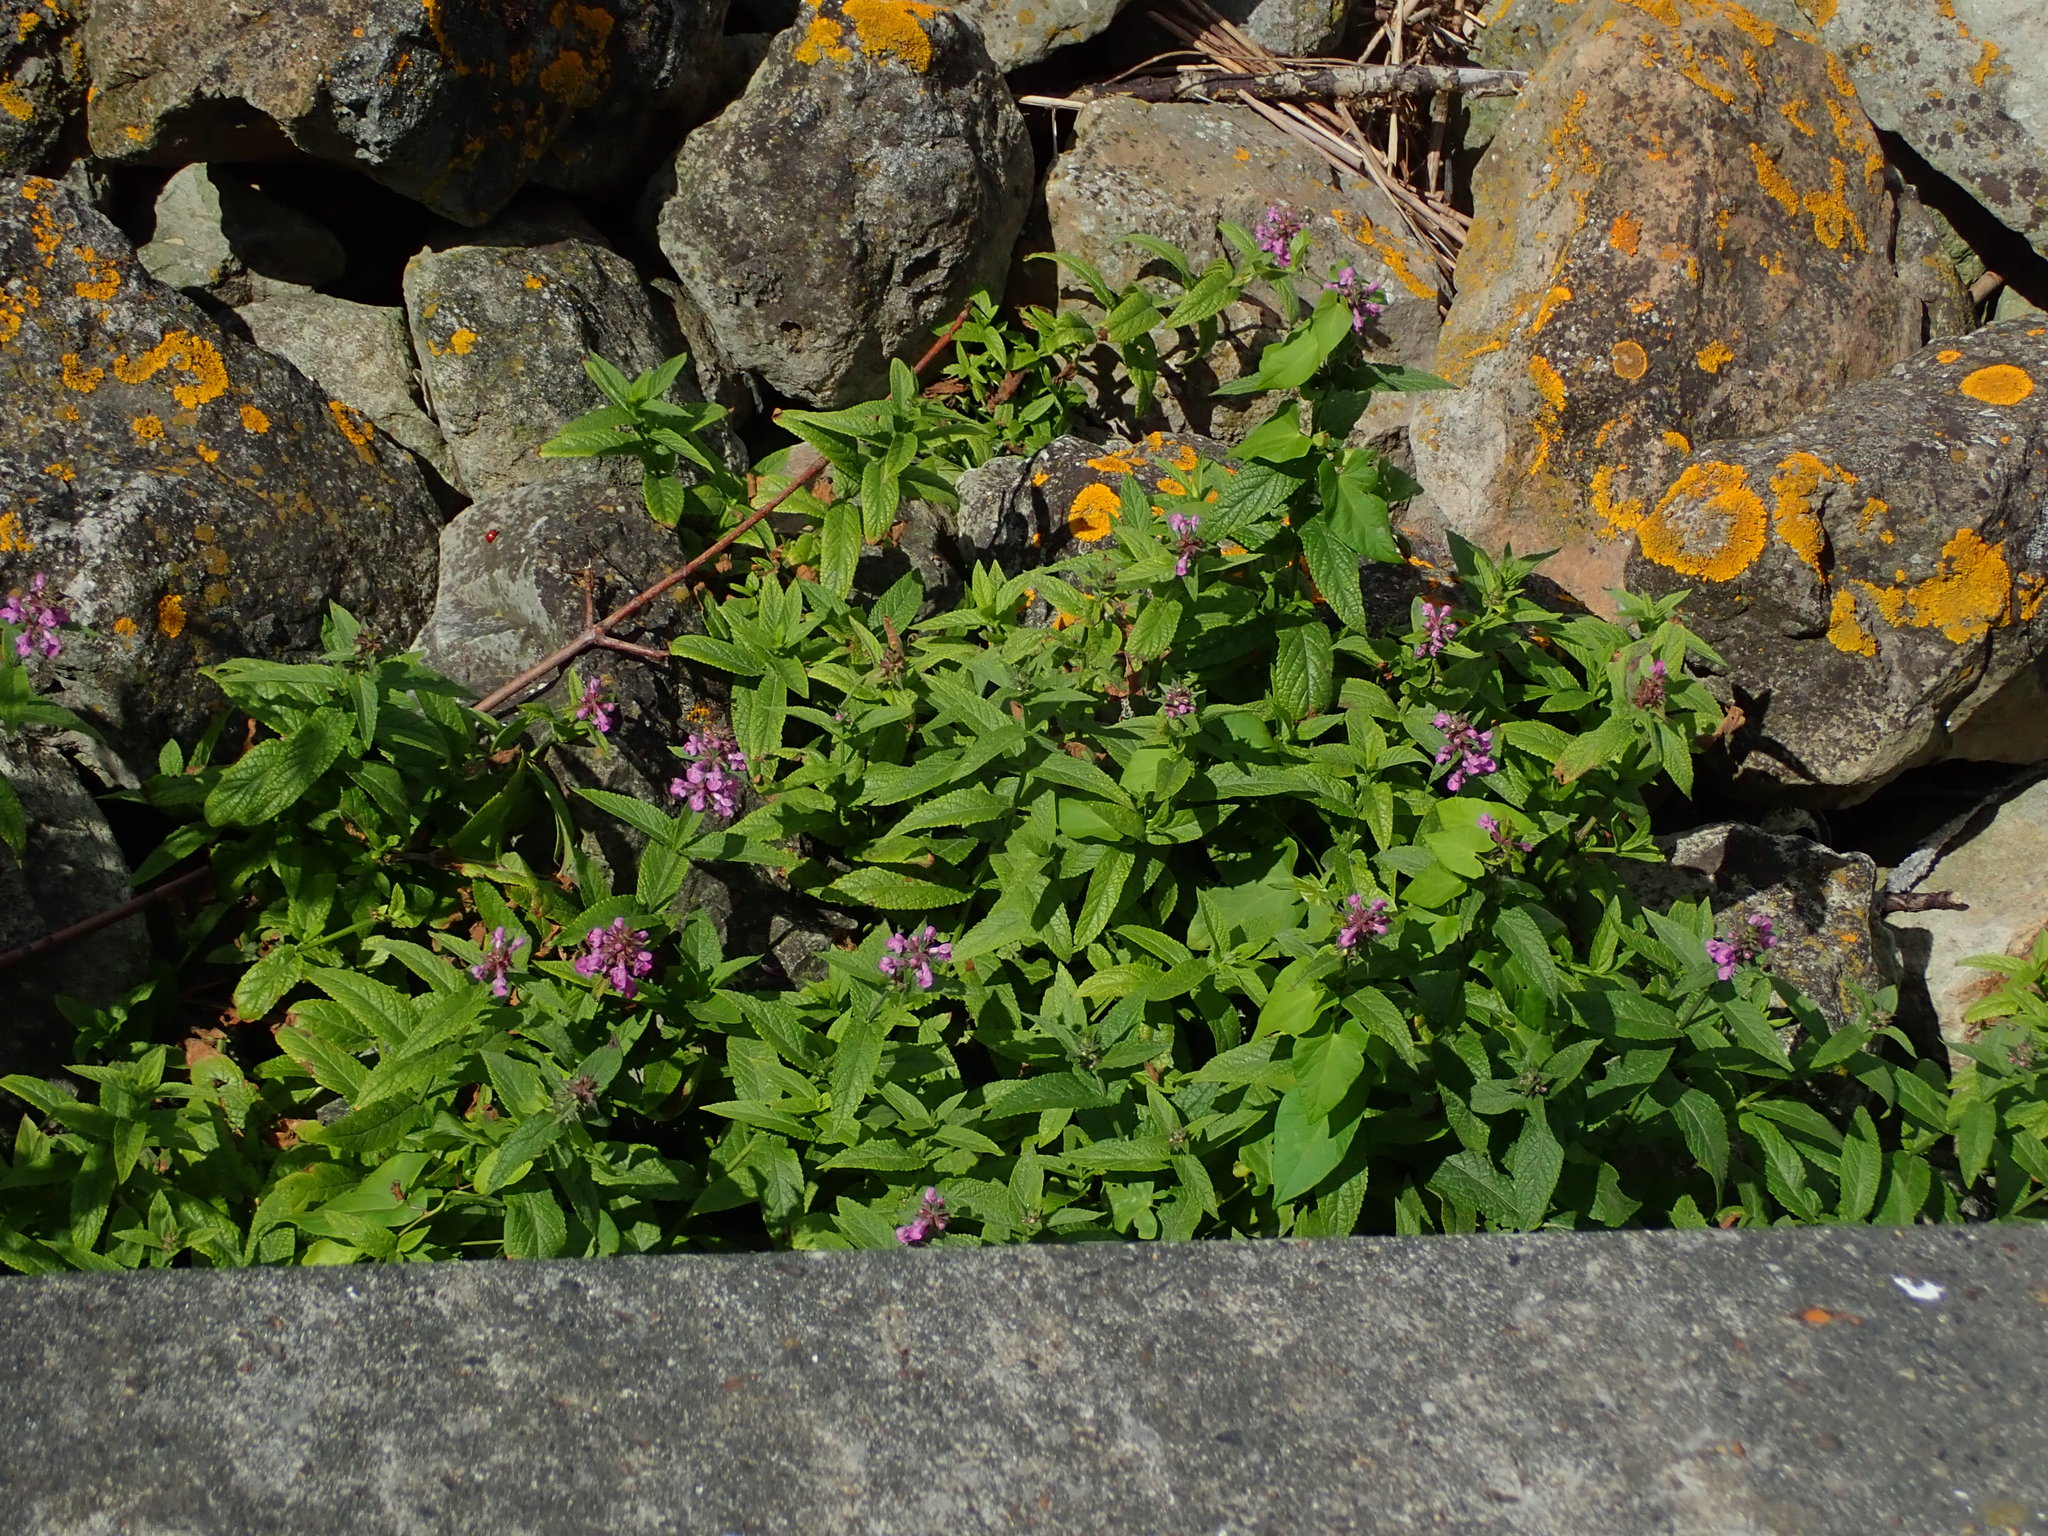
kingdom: Plantae
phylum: Tracheophyta
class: Magnoliopsida
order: Lamiales
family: Lamiaceae
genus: Stachys
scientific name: Stachys palustris
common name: Marsh woundwort
